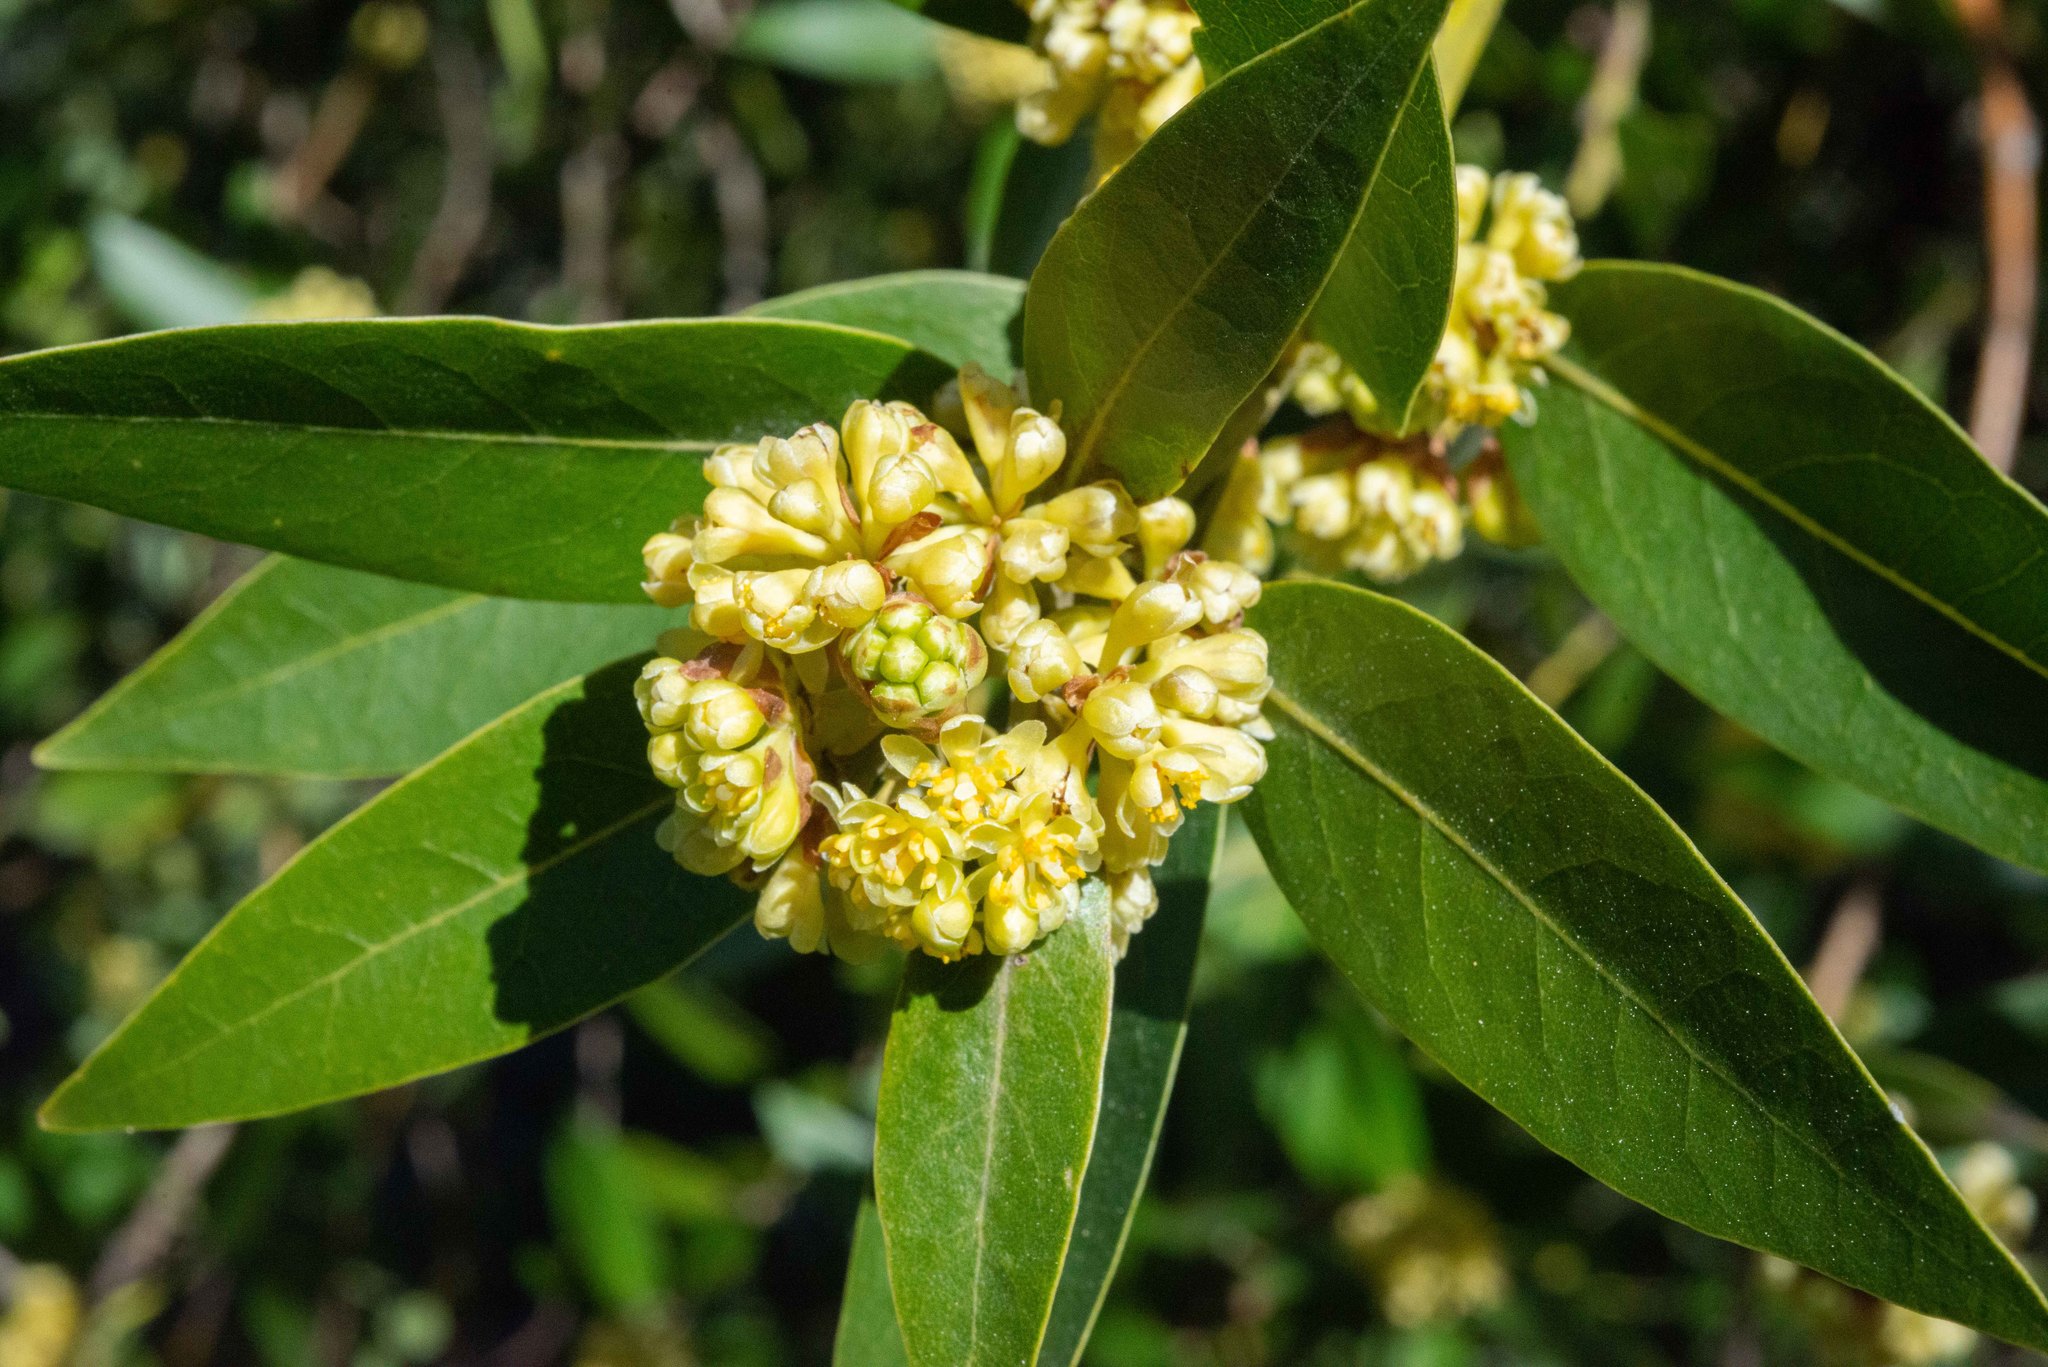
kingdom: Plantae
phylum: Tracheophyta
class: Magnoliopsida
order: Laurales
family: Lauraceae
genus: Umbellularia
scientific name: Umbellularia californica
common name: California bay
